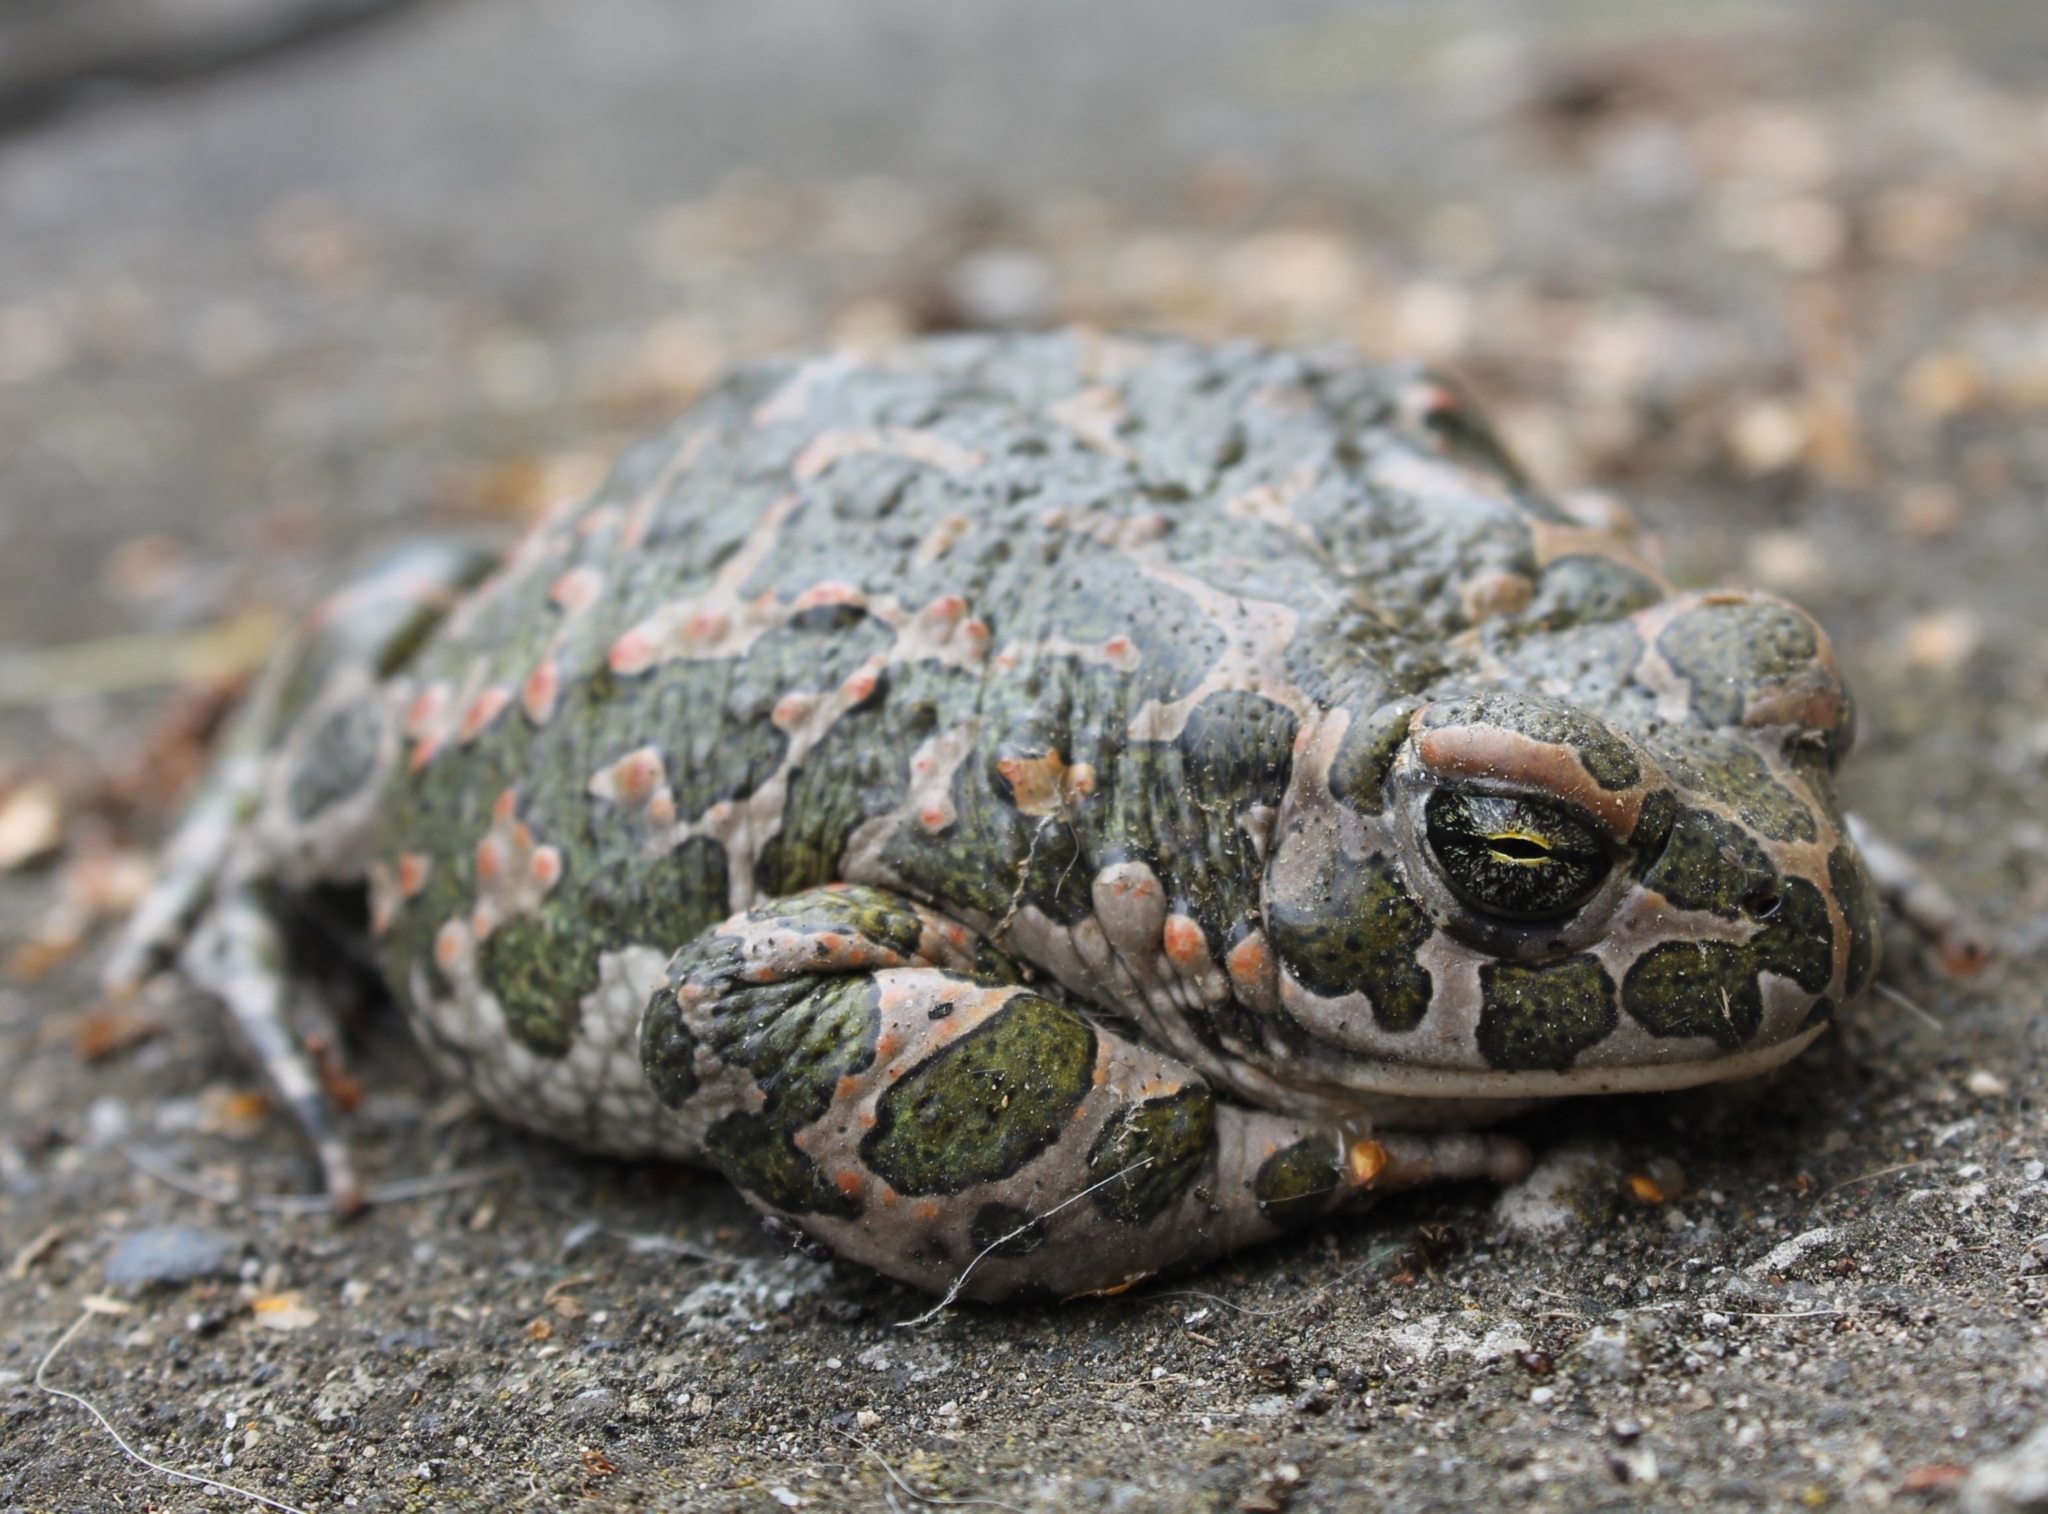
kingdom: Animalia
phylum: Chordata
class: Amphibia
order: Anura
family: Bufonidae
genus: Bufotes
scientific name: Bufotes viridis
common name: European green toad
